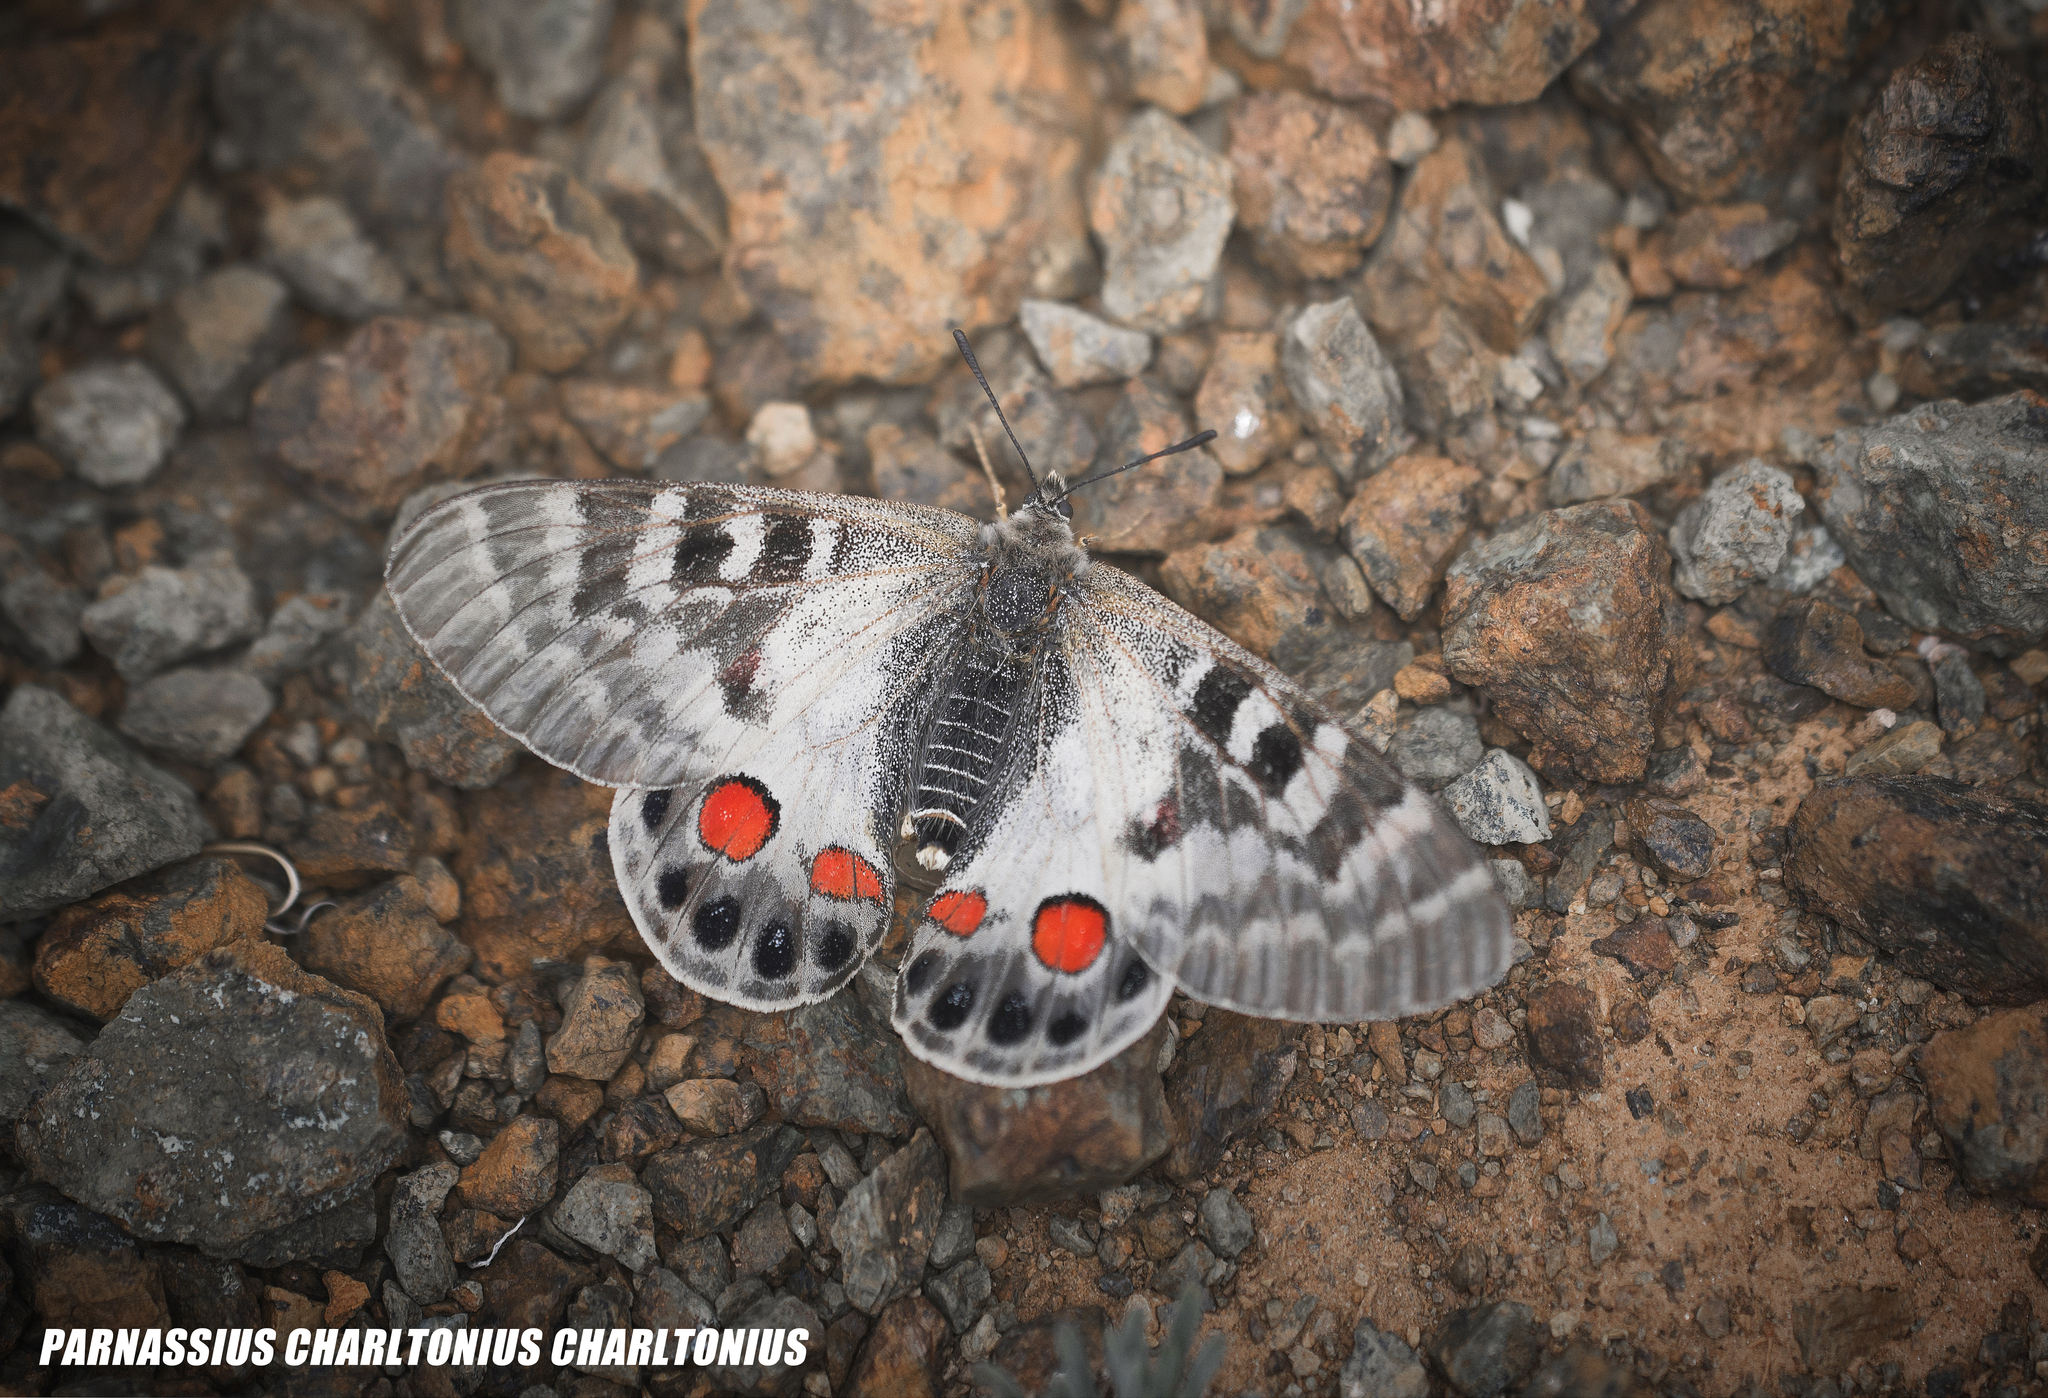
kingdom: Animalia
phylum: Arthropoda
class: Insecta
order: Lepidoptera
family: Papilionidae
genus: Parnassius
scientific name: Parnassius charltonius
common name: Regal apollo
